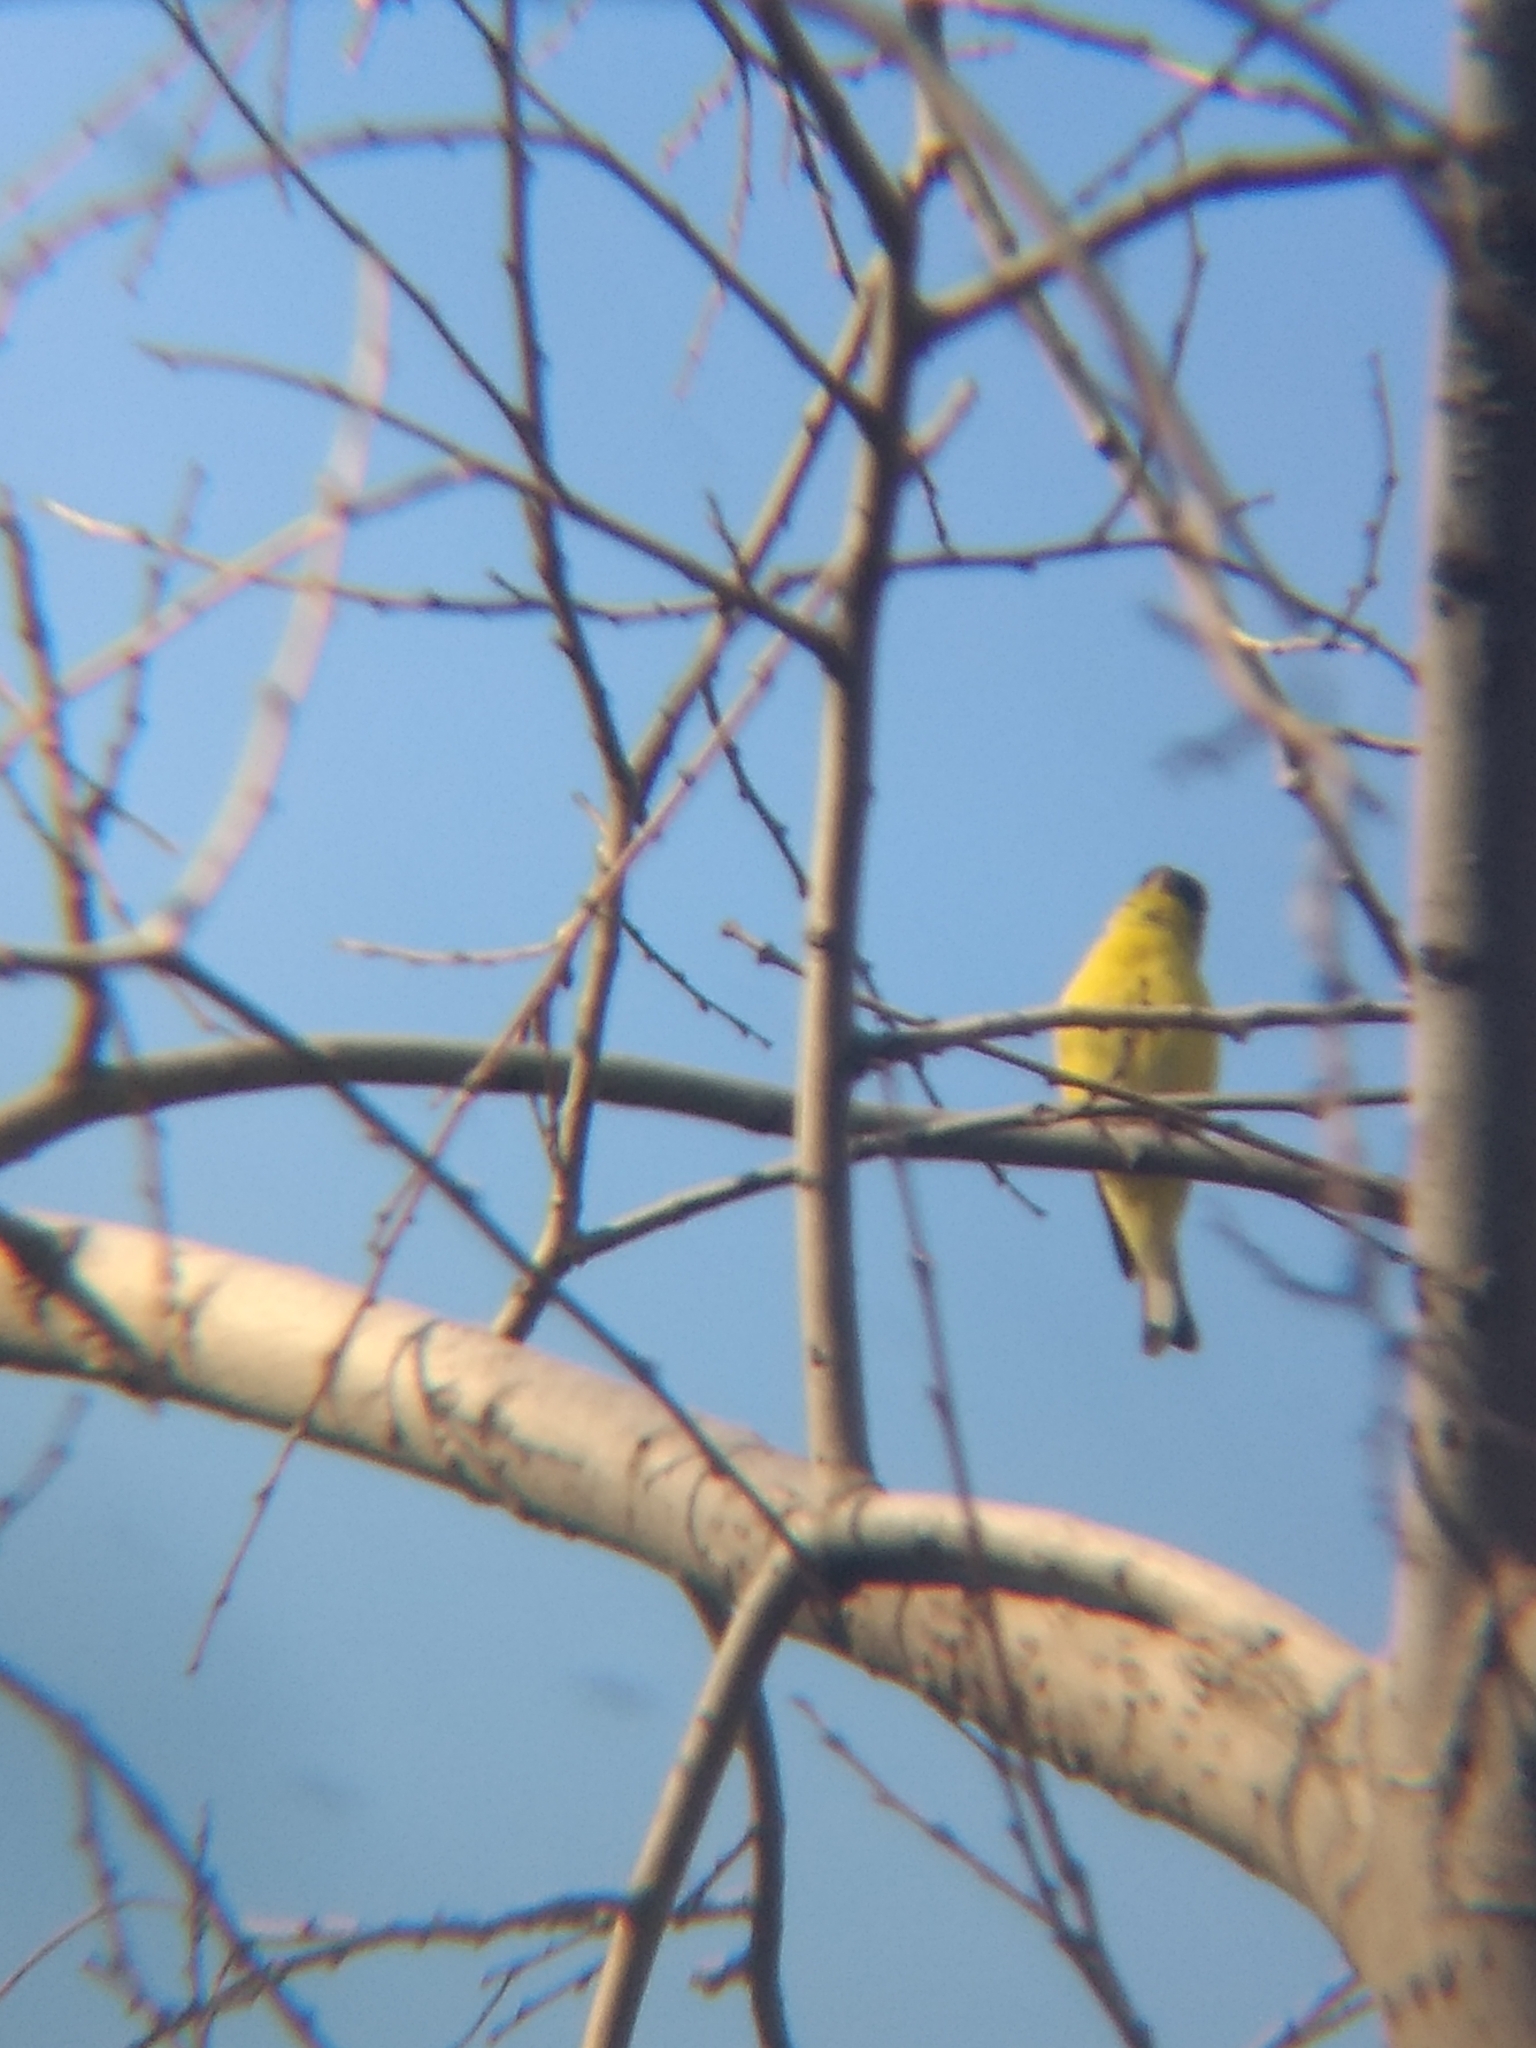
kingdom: Animalia
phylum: Chordata
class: Aves
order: Passeriformes
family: Fringillidae
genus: Spinus
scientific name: Spinus psaltria
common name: Lesser goldfinch
